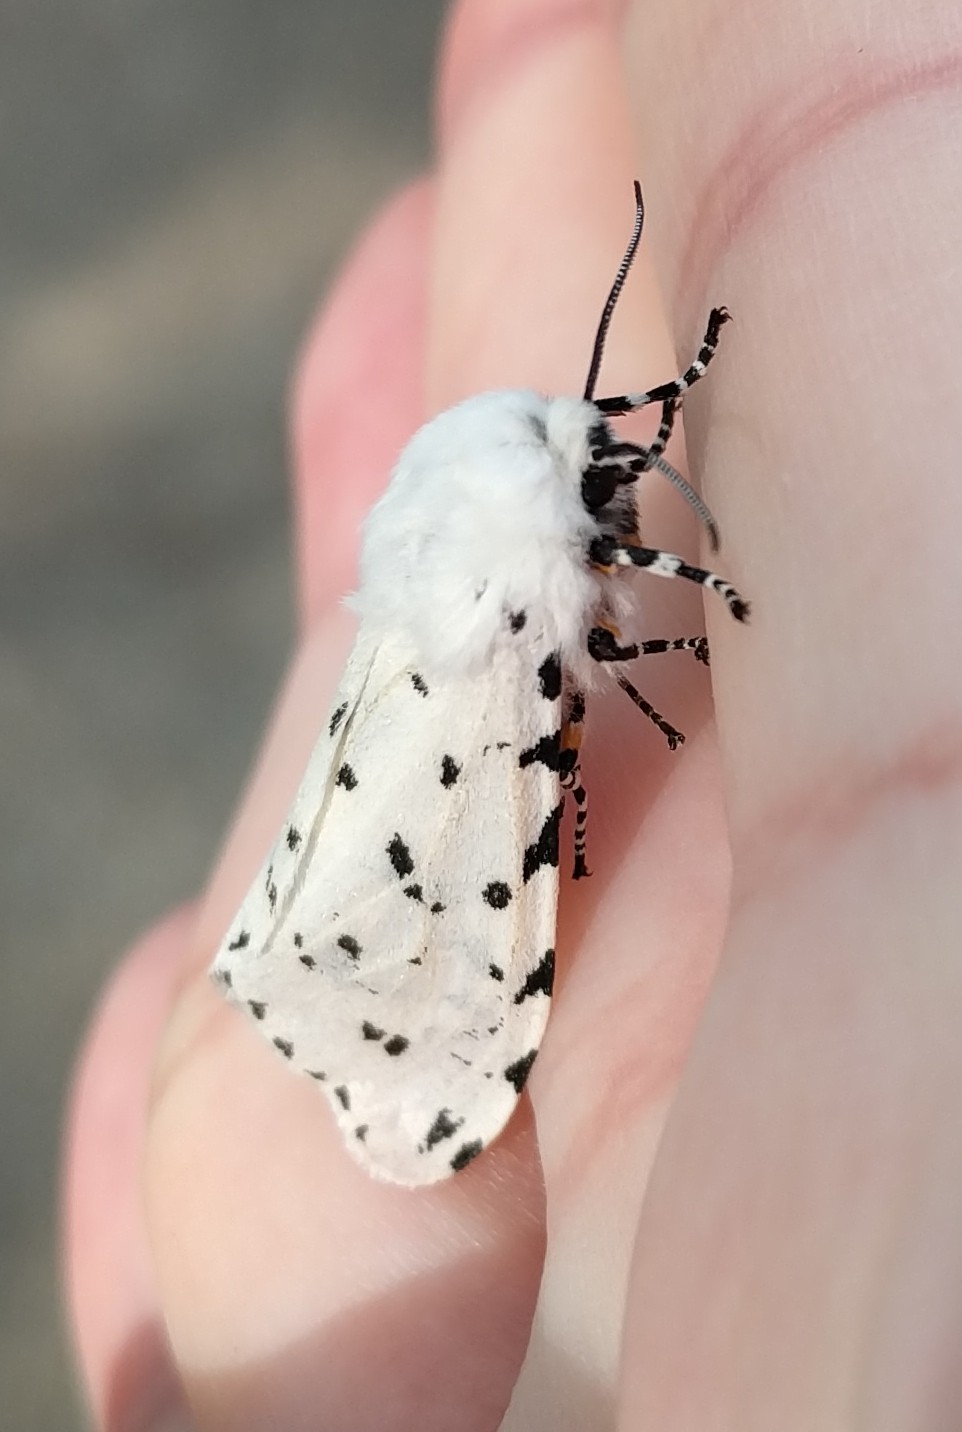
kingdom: Animalia
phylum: Arthropoda
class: Insecta
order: Lepidoptera
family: Erebidae
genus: Estigmene
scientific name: Estigmene acrea
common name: Salt marsh moth
